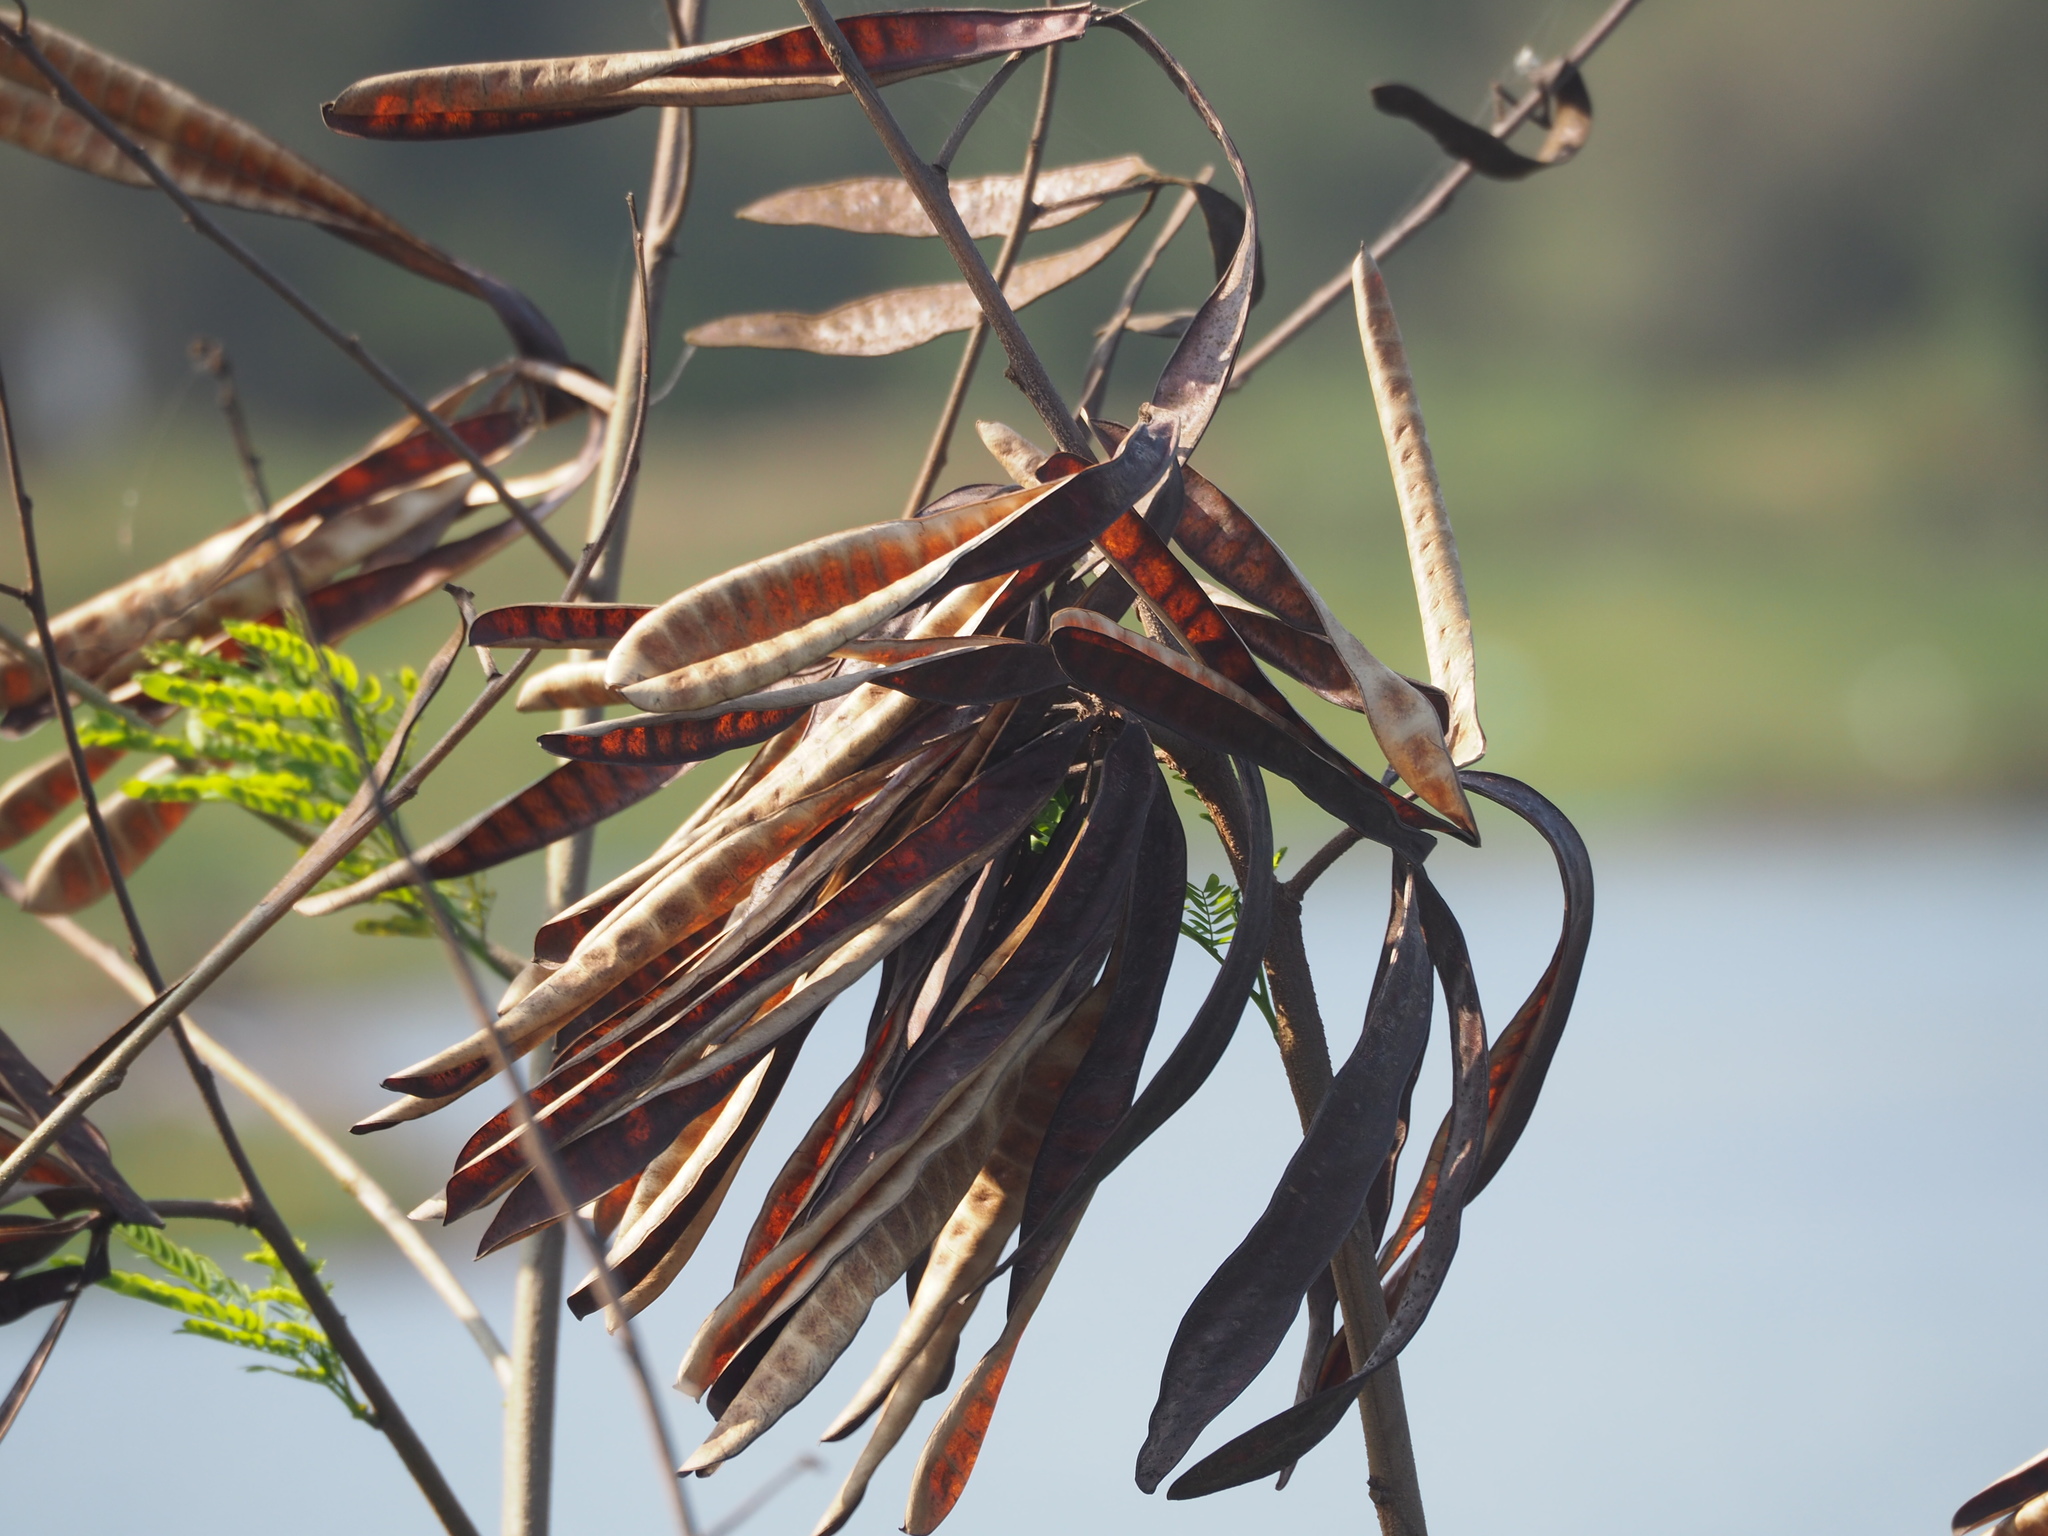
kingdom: Plantae
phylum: Tracheophyta
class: Magnoliopsida
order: Fabales
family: Fabaceae
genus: Leucaena
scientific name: Leucaena leucocephala
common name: White leadtree
